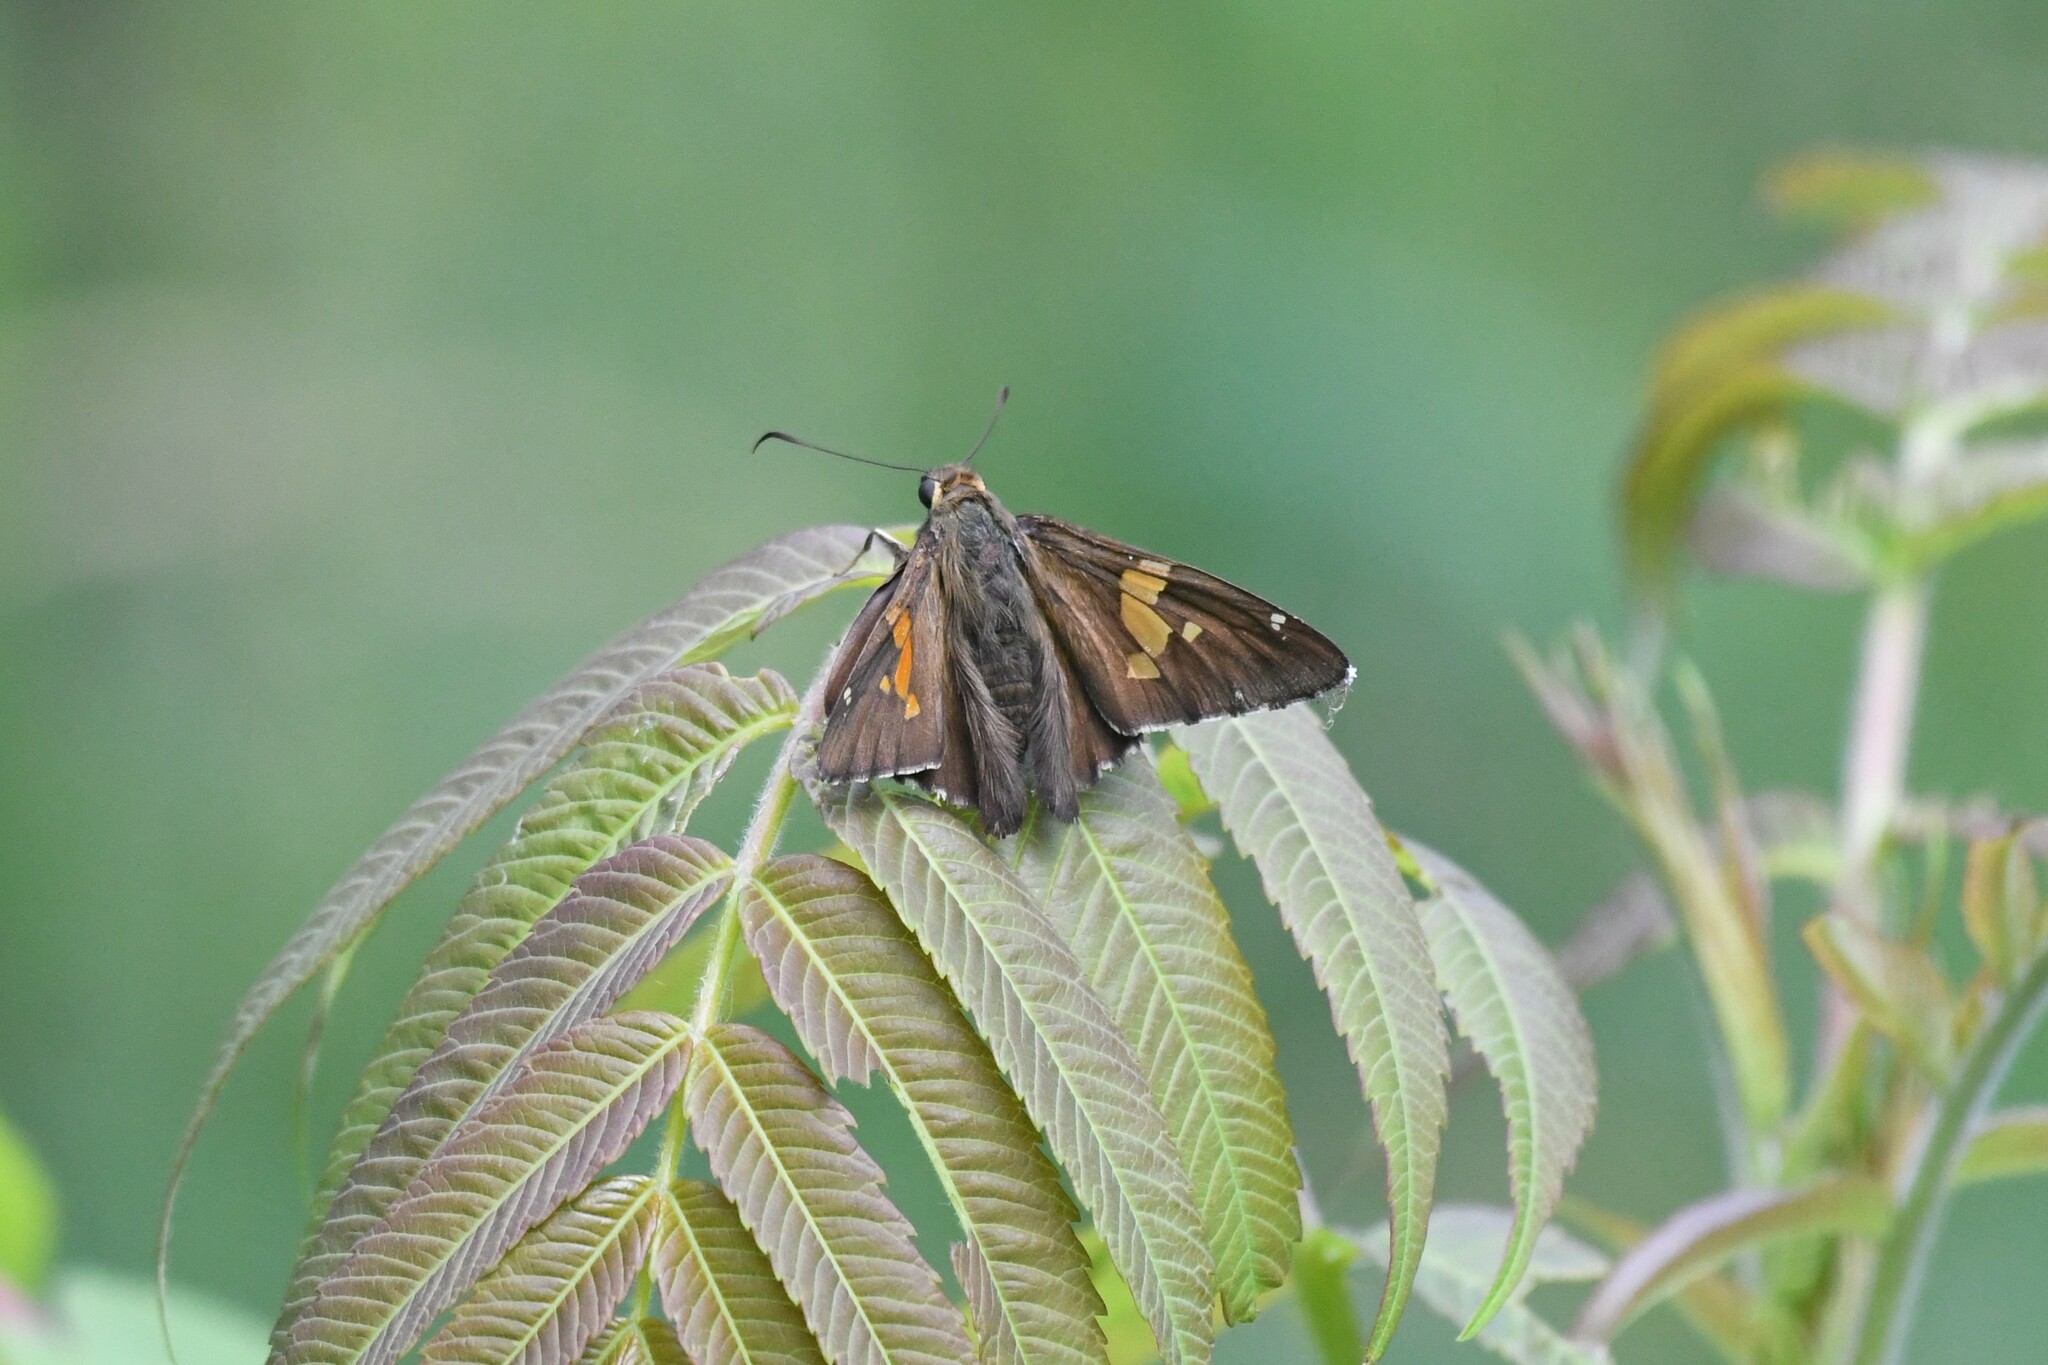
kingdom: Animalia
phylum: Arthropoda
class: Insecta
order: Lepidoptera
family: Hesperiidae
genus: Epargyreus
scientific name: Epargyreus clarus
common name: Silver-spotted skipper
